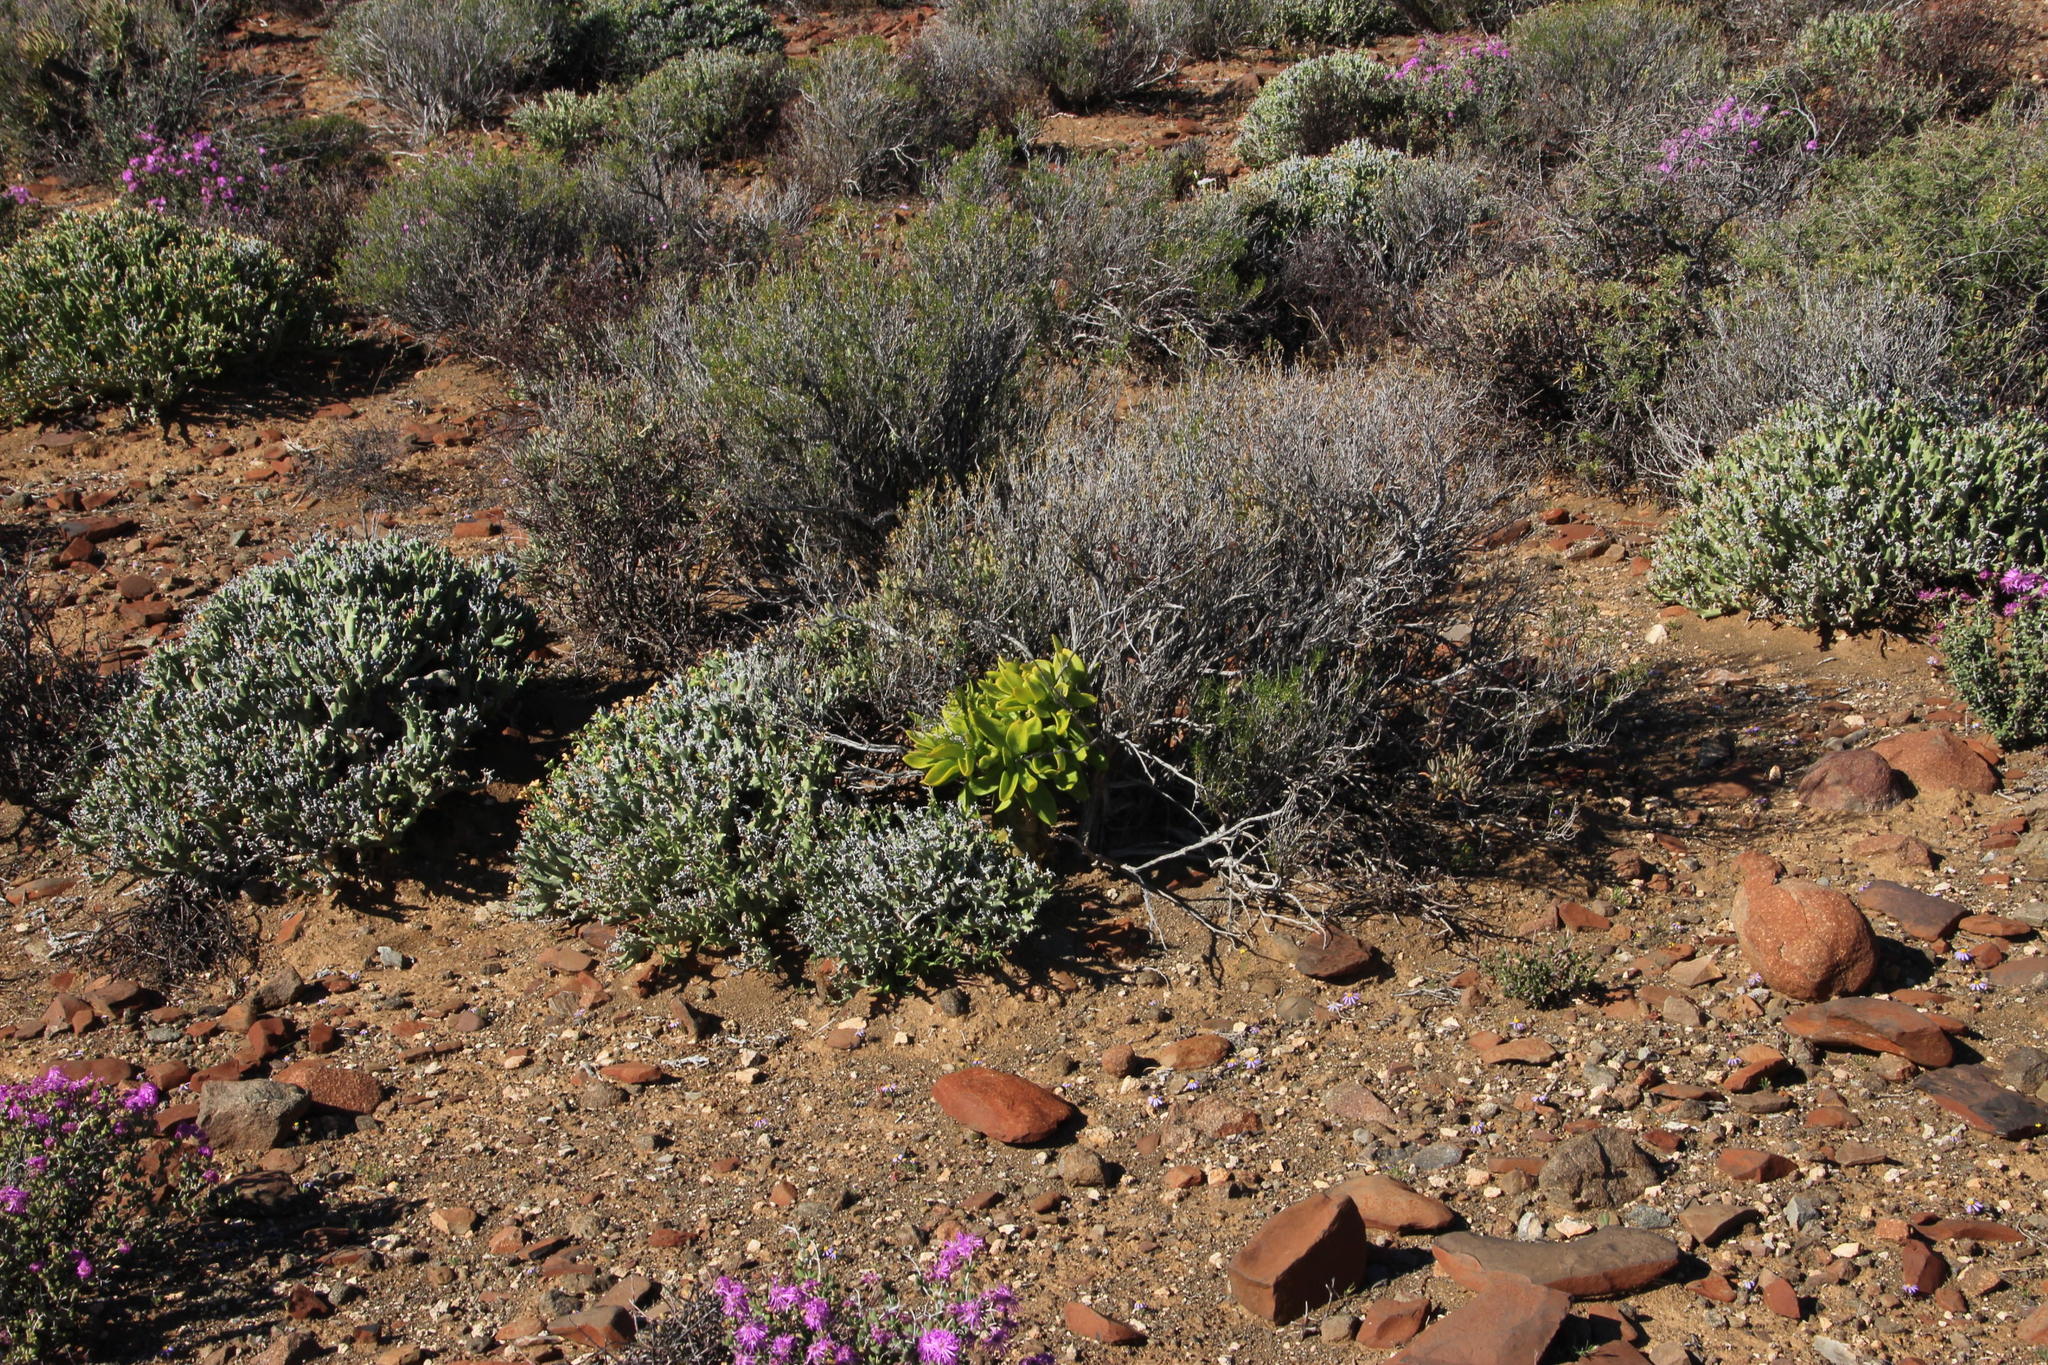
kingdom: Plantae
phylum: Tracheophyta
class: Magnoliopsida
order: Saxifragales
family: Crassulaceae
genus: Tylecodon
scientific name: Tylecodon paniculatus
